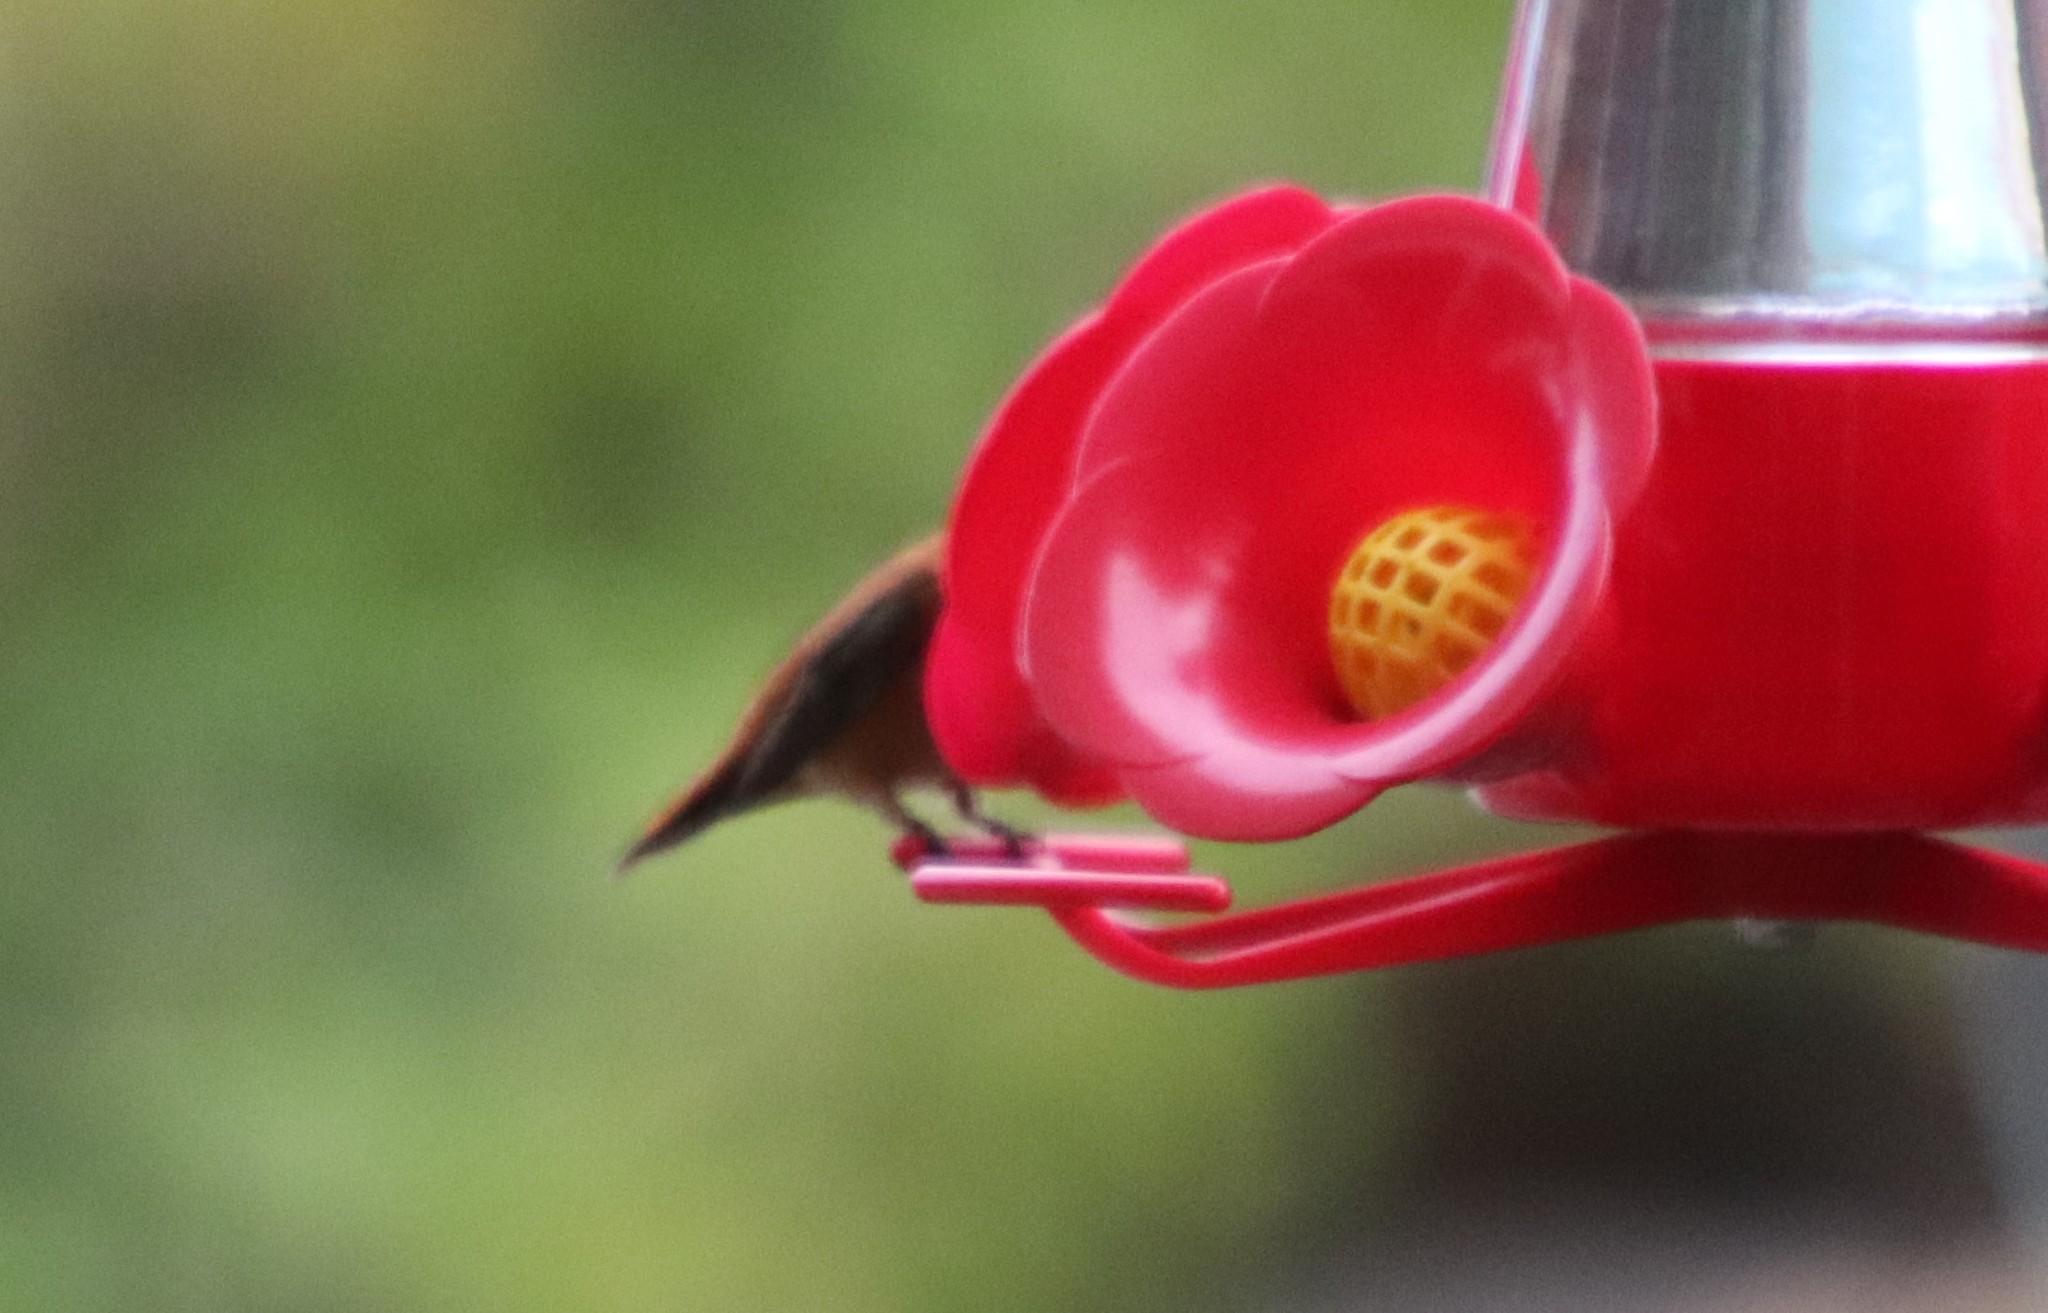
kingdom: Animalia
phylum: Chordata
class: Aves
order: Apodiformes
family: Trochilidae
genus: Selasphorus
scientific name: Selasphorus rufus
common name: Rufous hummingbird
